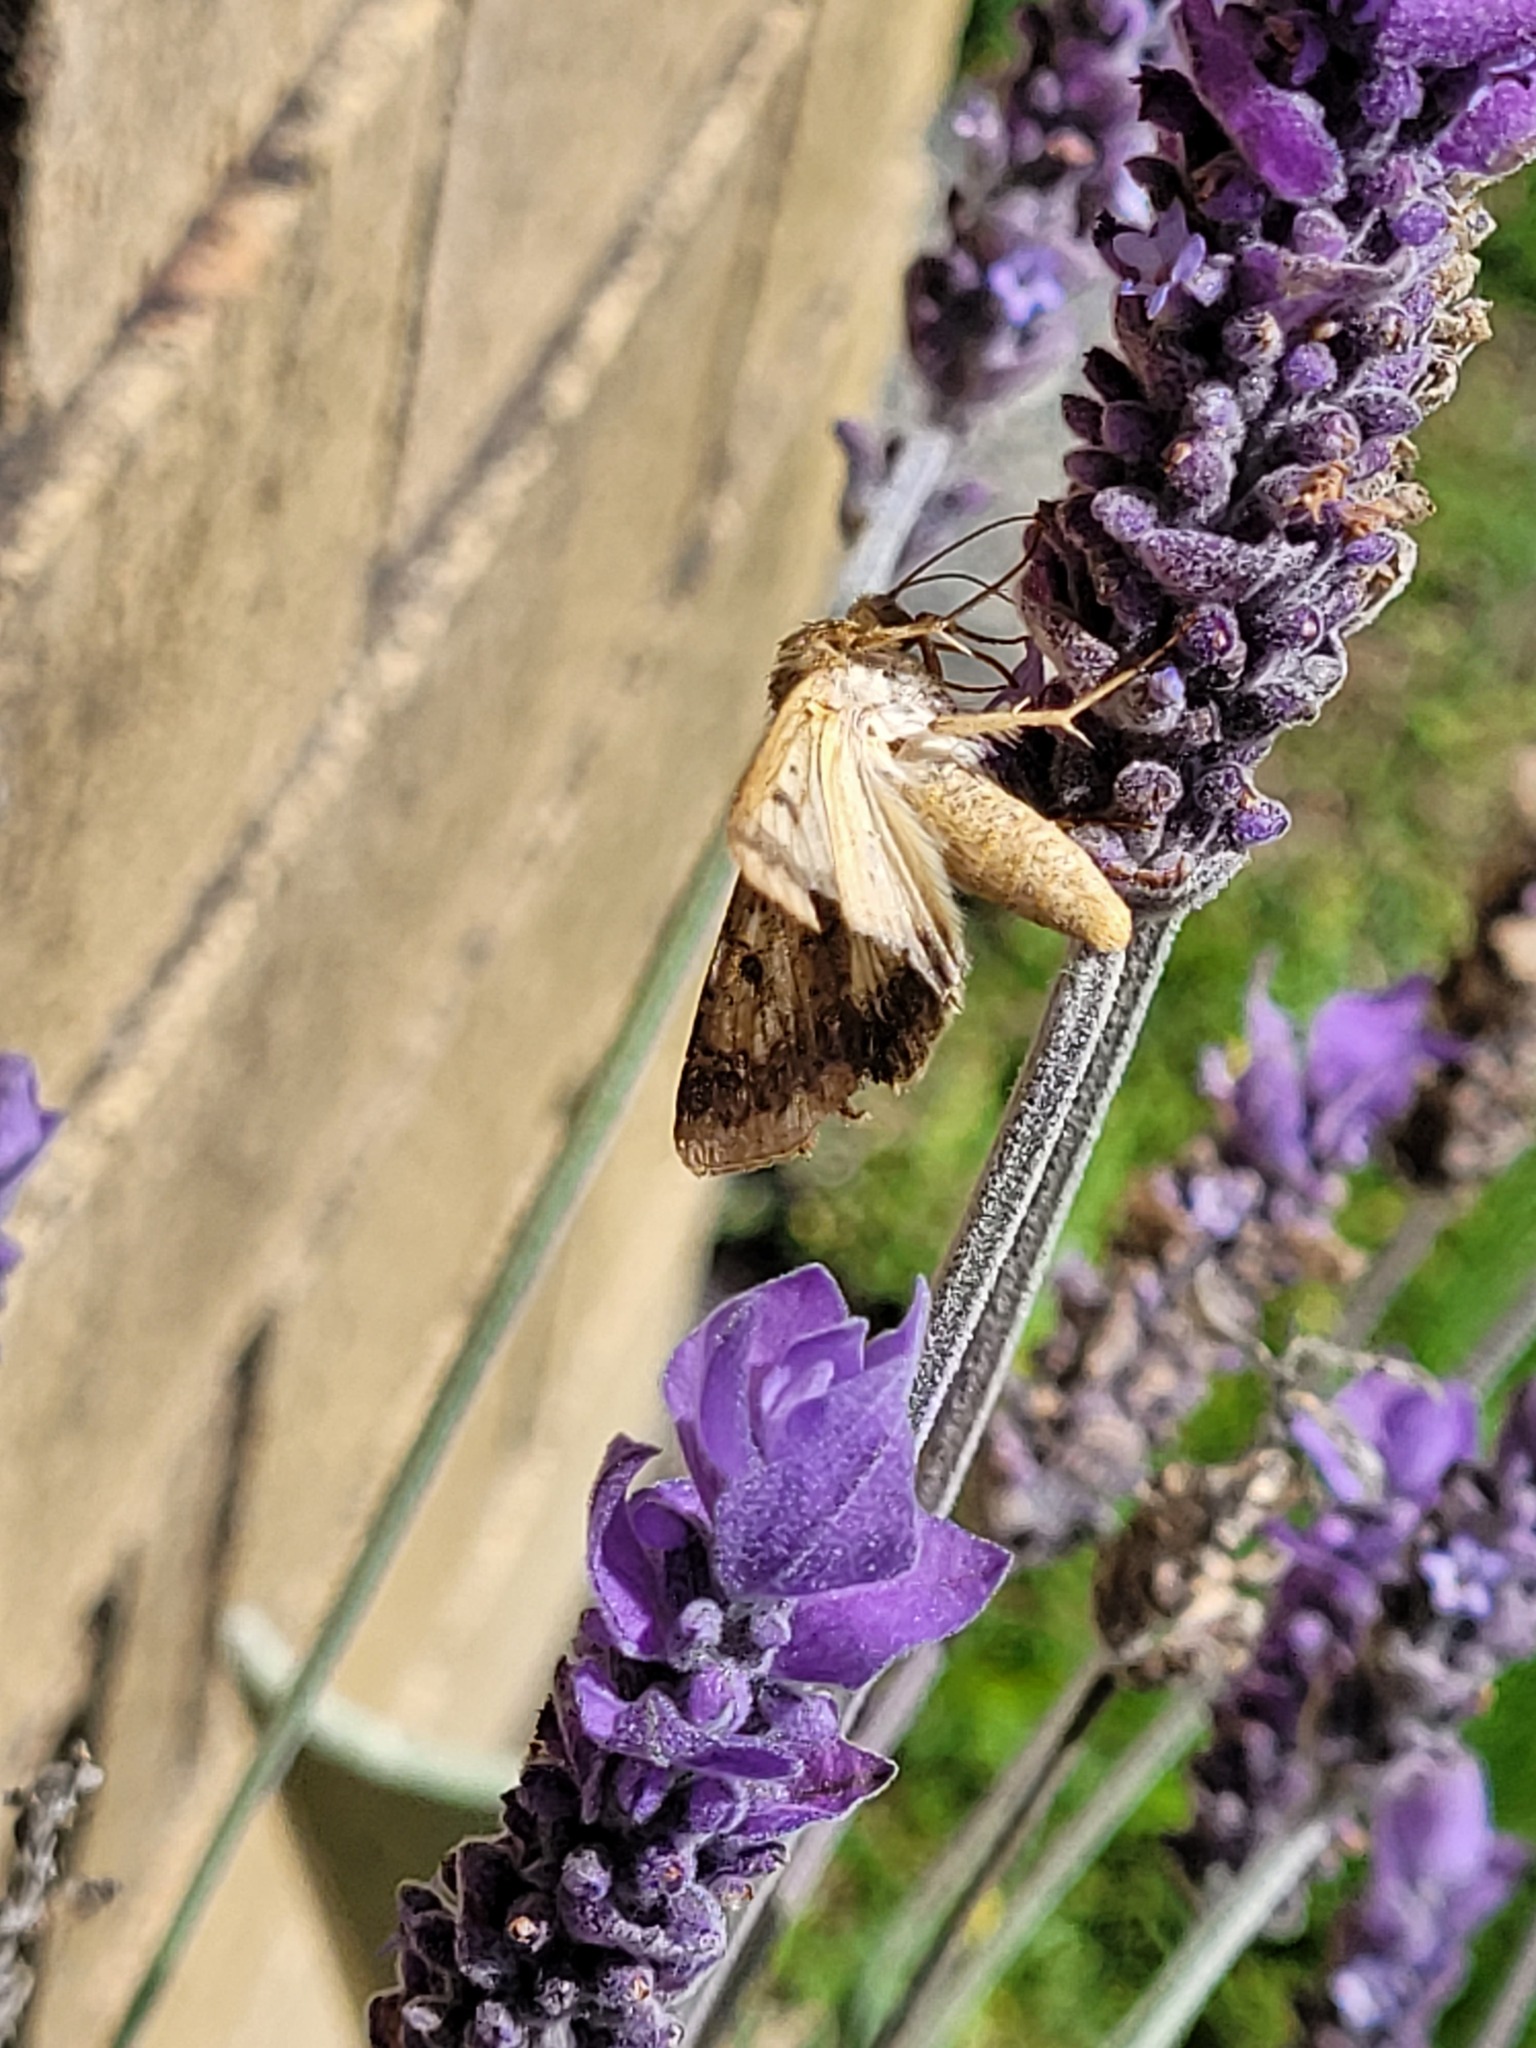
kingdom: Animalia
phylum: Arthropoda
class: Insecta
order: Lepidoptera
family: Noctuidae
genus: Helicoverpa
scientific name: Helicoverpa armigera
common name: Cotton bollworm
